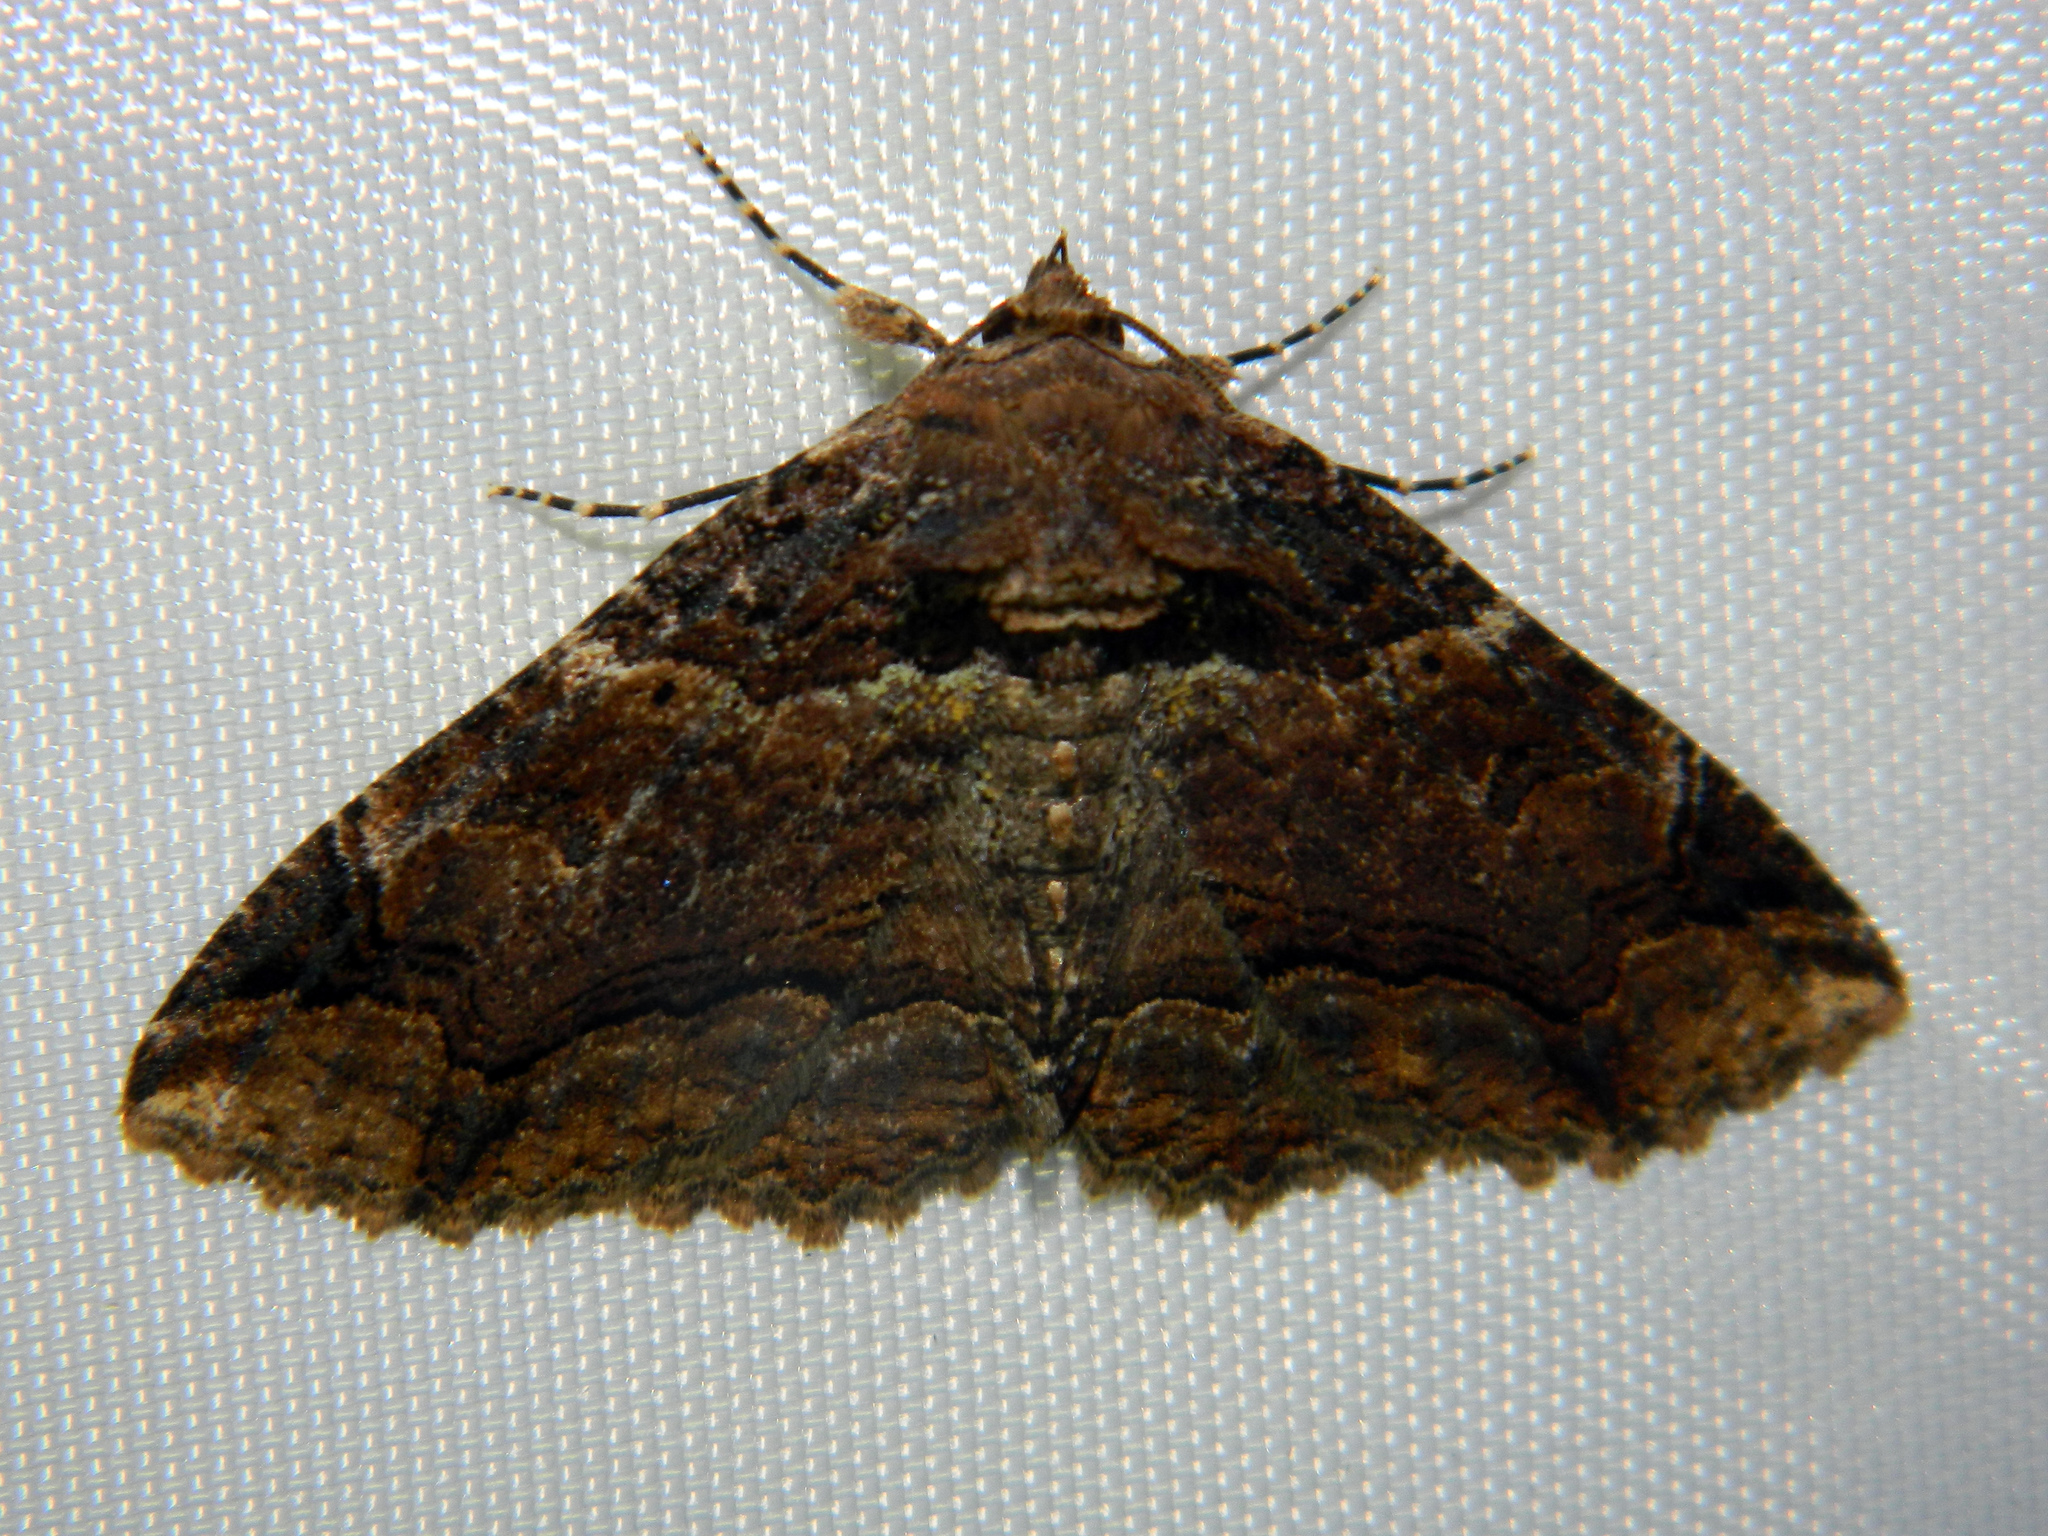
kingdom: Animalia
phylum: Arthropoda
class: Insecta
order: Lepidoptera
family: Erebidae
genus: Zale
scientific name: Zale minerea
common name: Colorful zale moth
